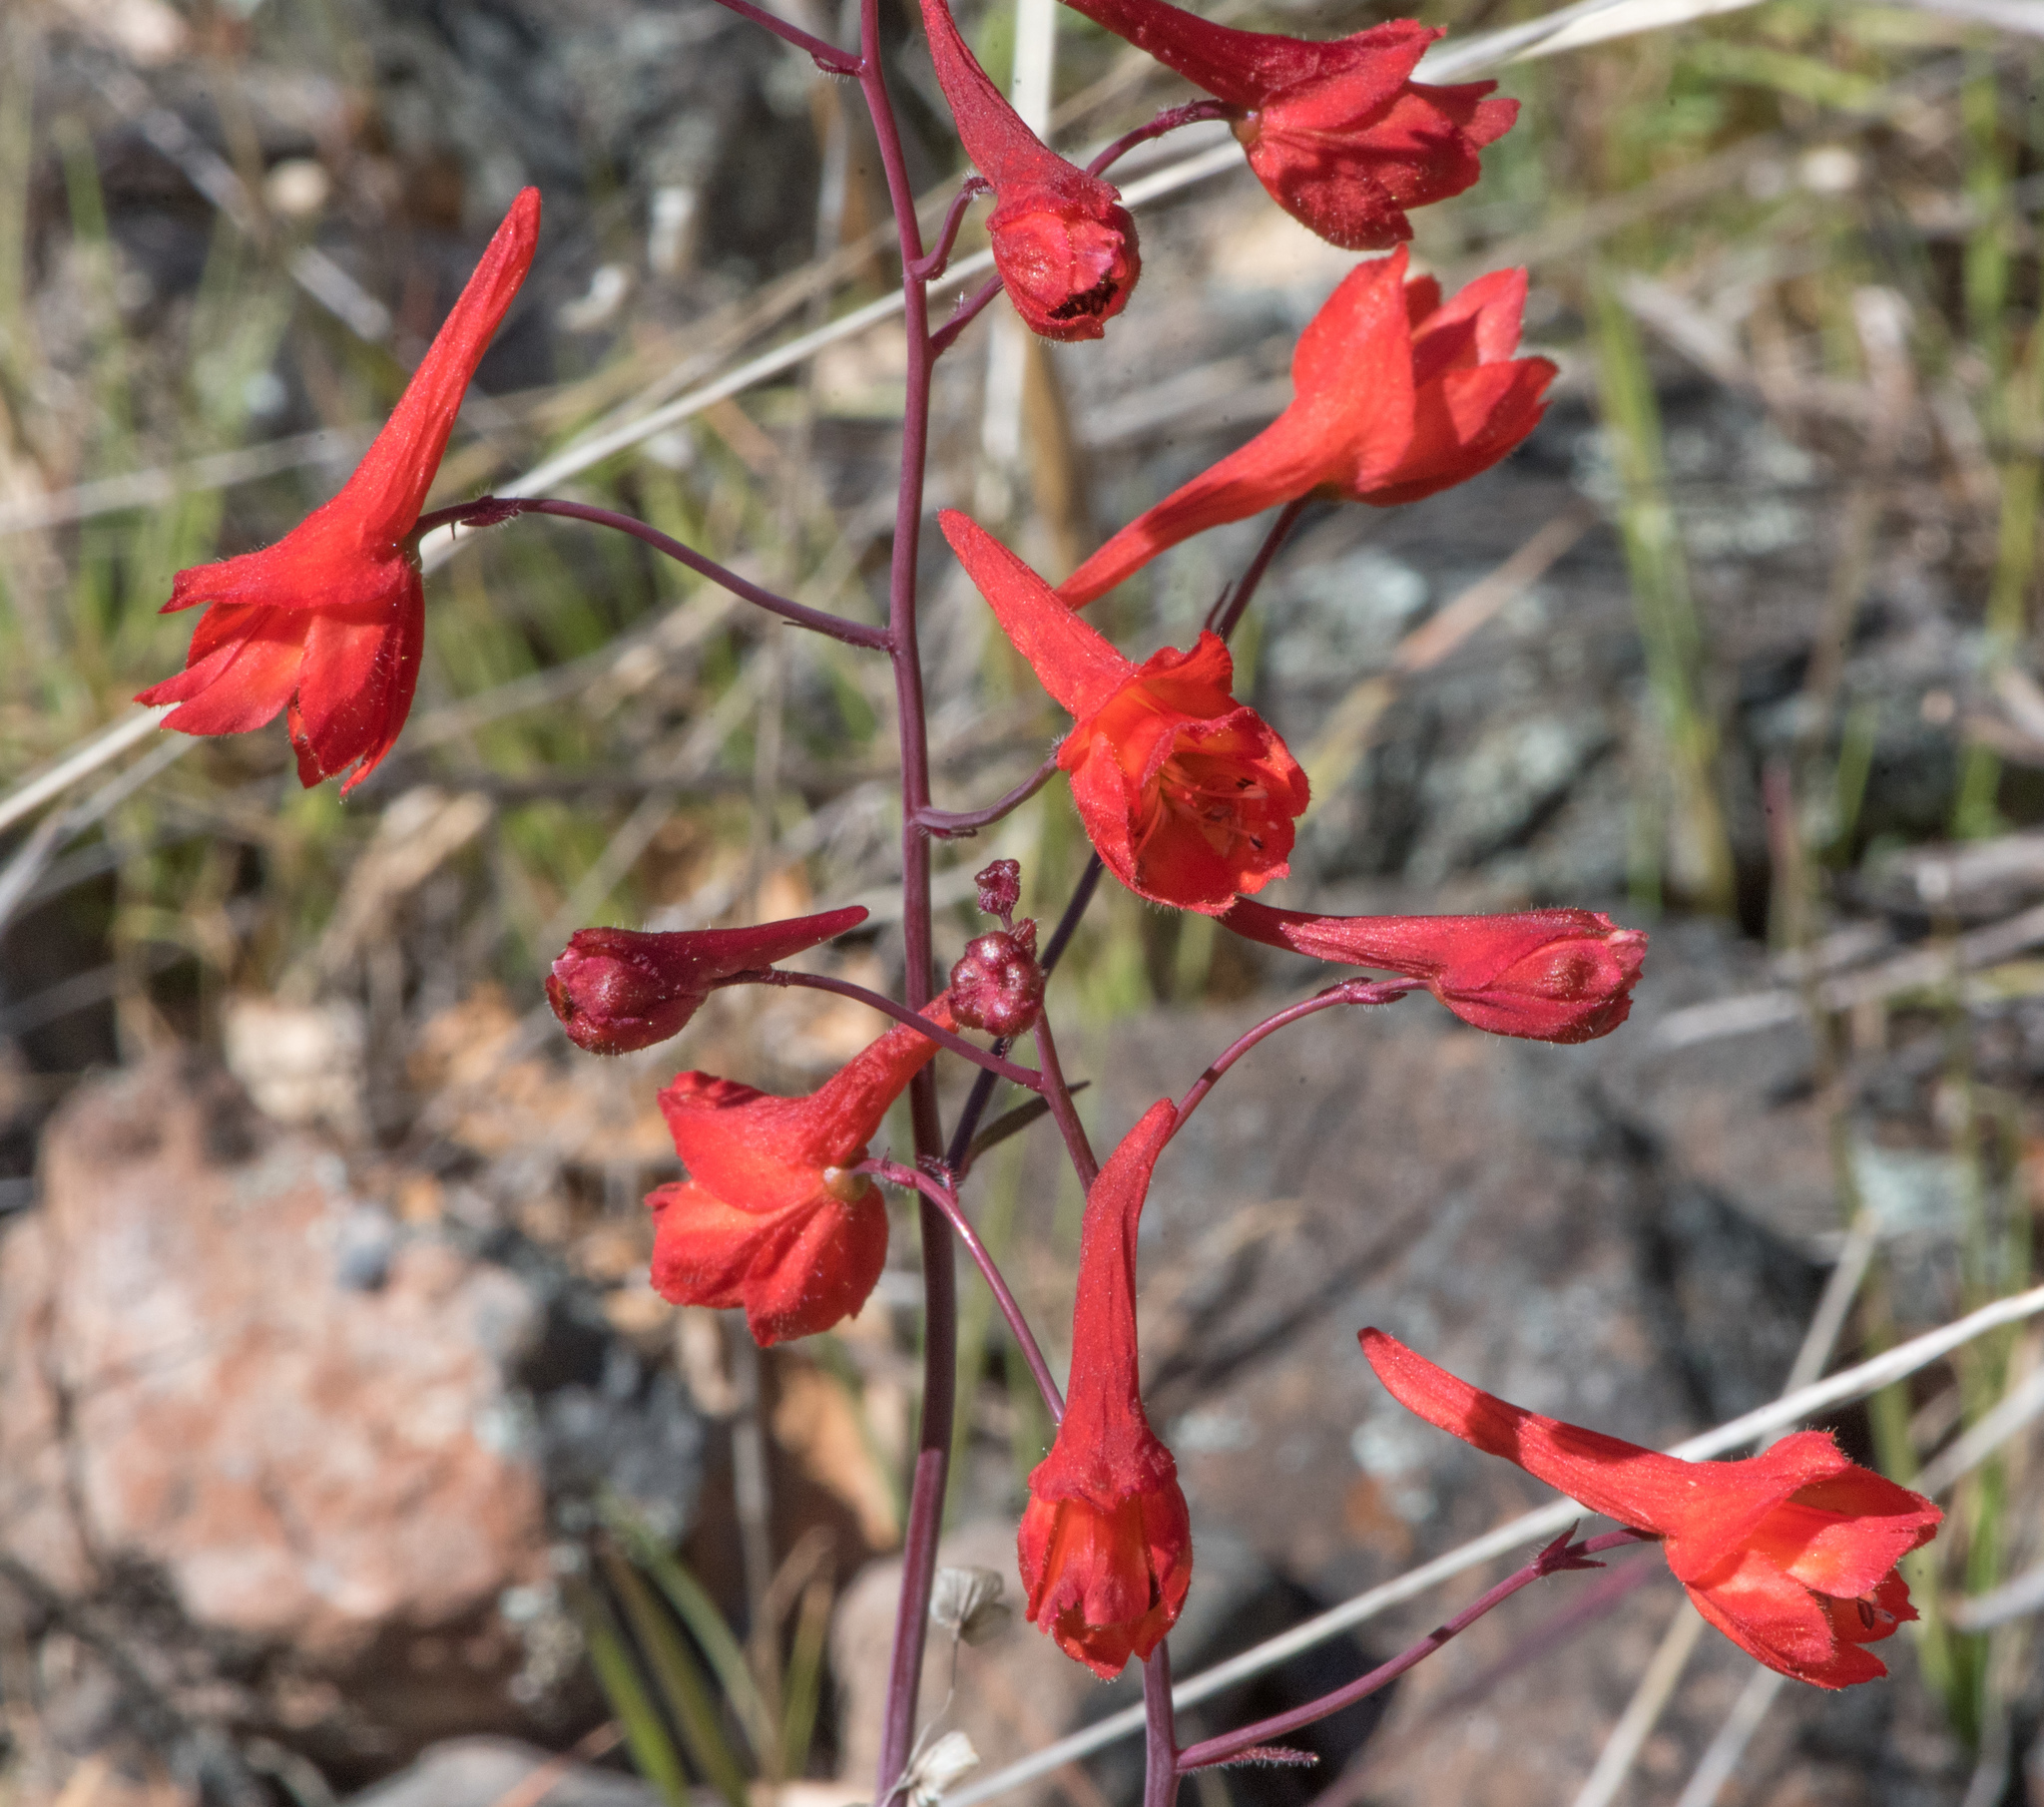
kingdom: Plantae
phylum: Tracheophyta
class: Magnoliopsida
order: Ranunculales
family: Ranunculaceae
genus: Delphinium
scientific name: Delphinium nudicaule
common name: Red larkspur
